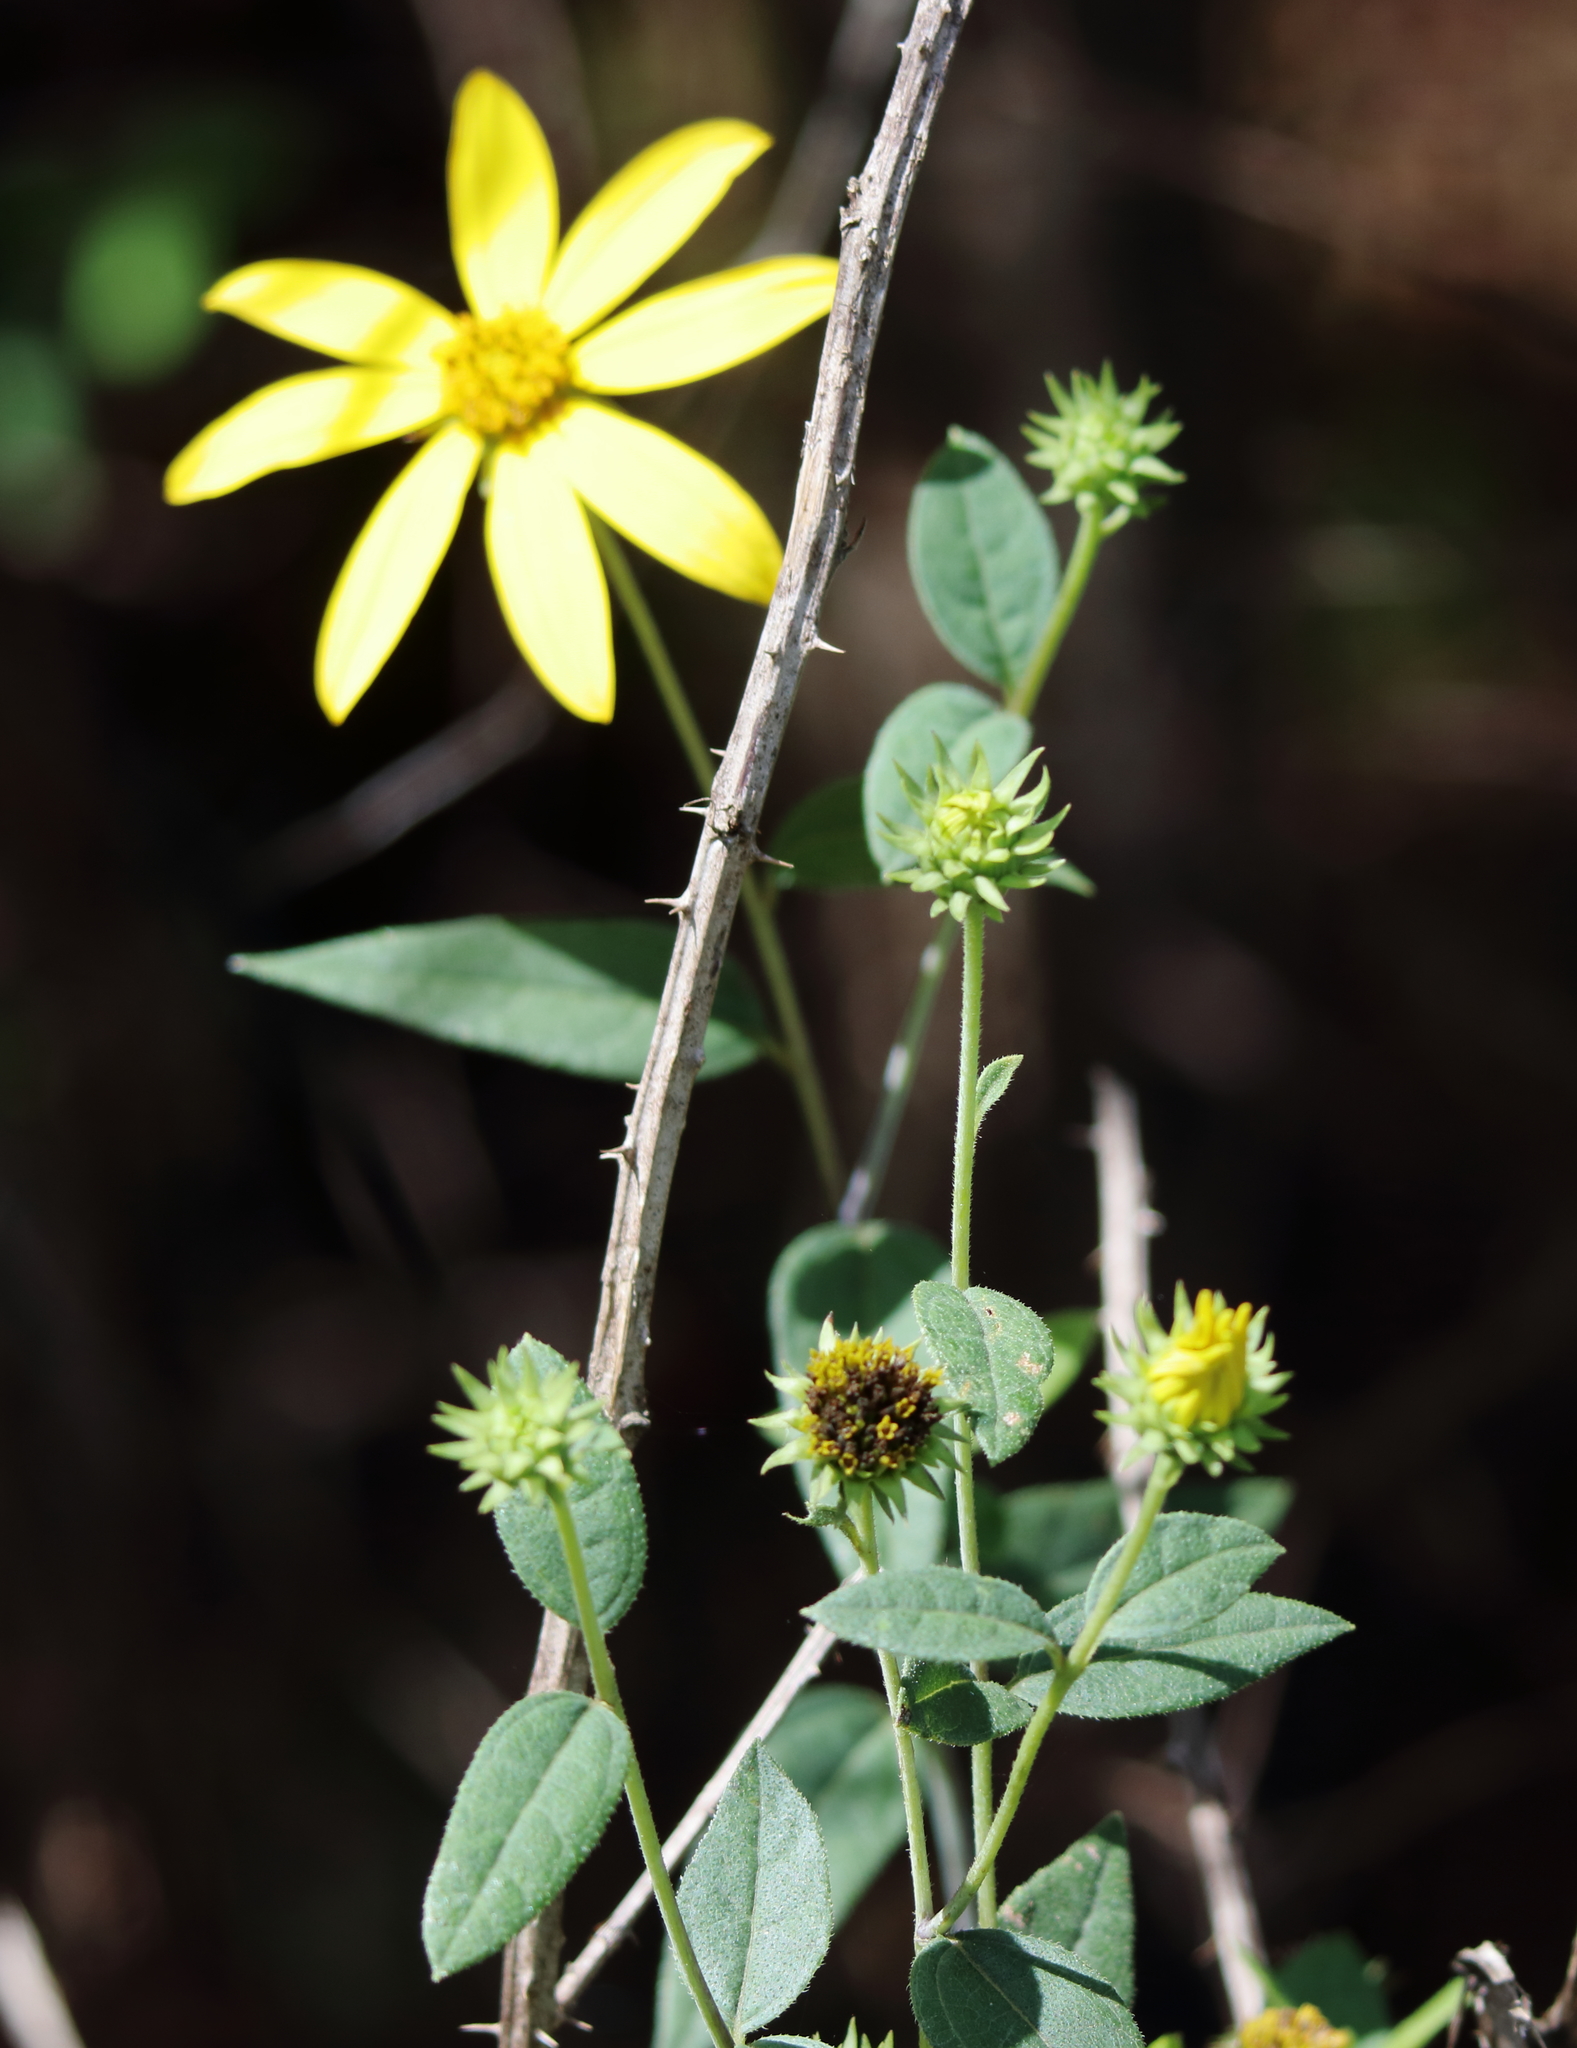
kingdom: Plantae
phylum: Tracheophyta
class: Magnoliopsida
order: Asterales
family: Asteraceae
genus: Helianthus
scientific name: Helianthus hirsutus
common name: Hairy sunflower
